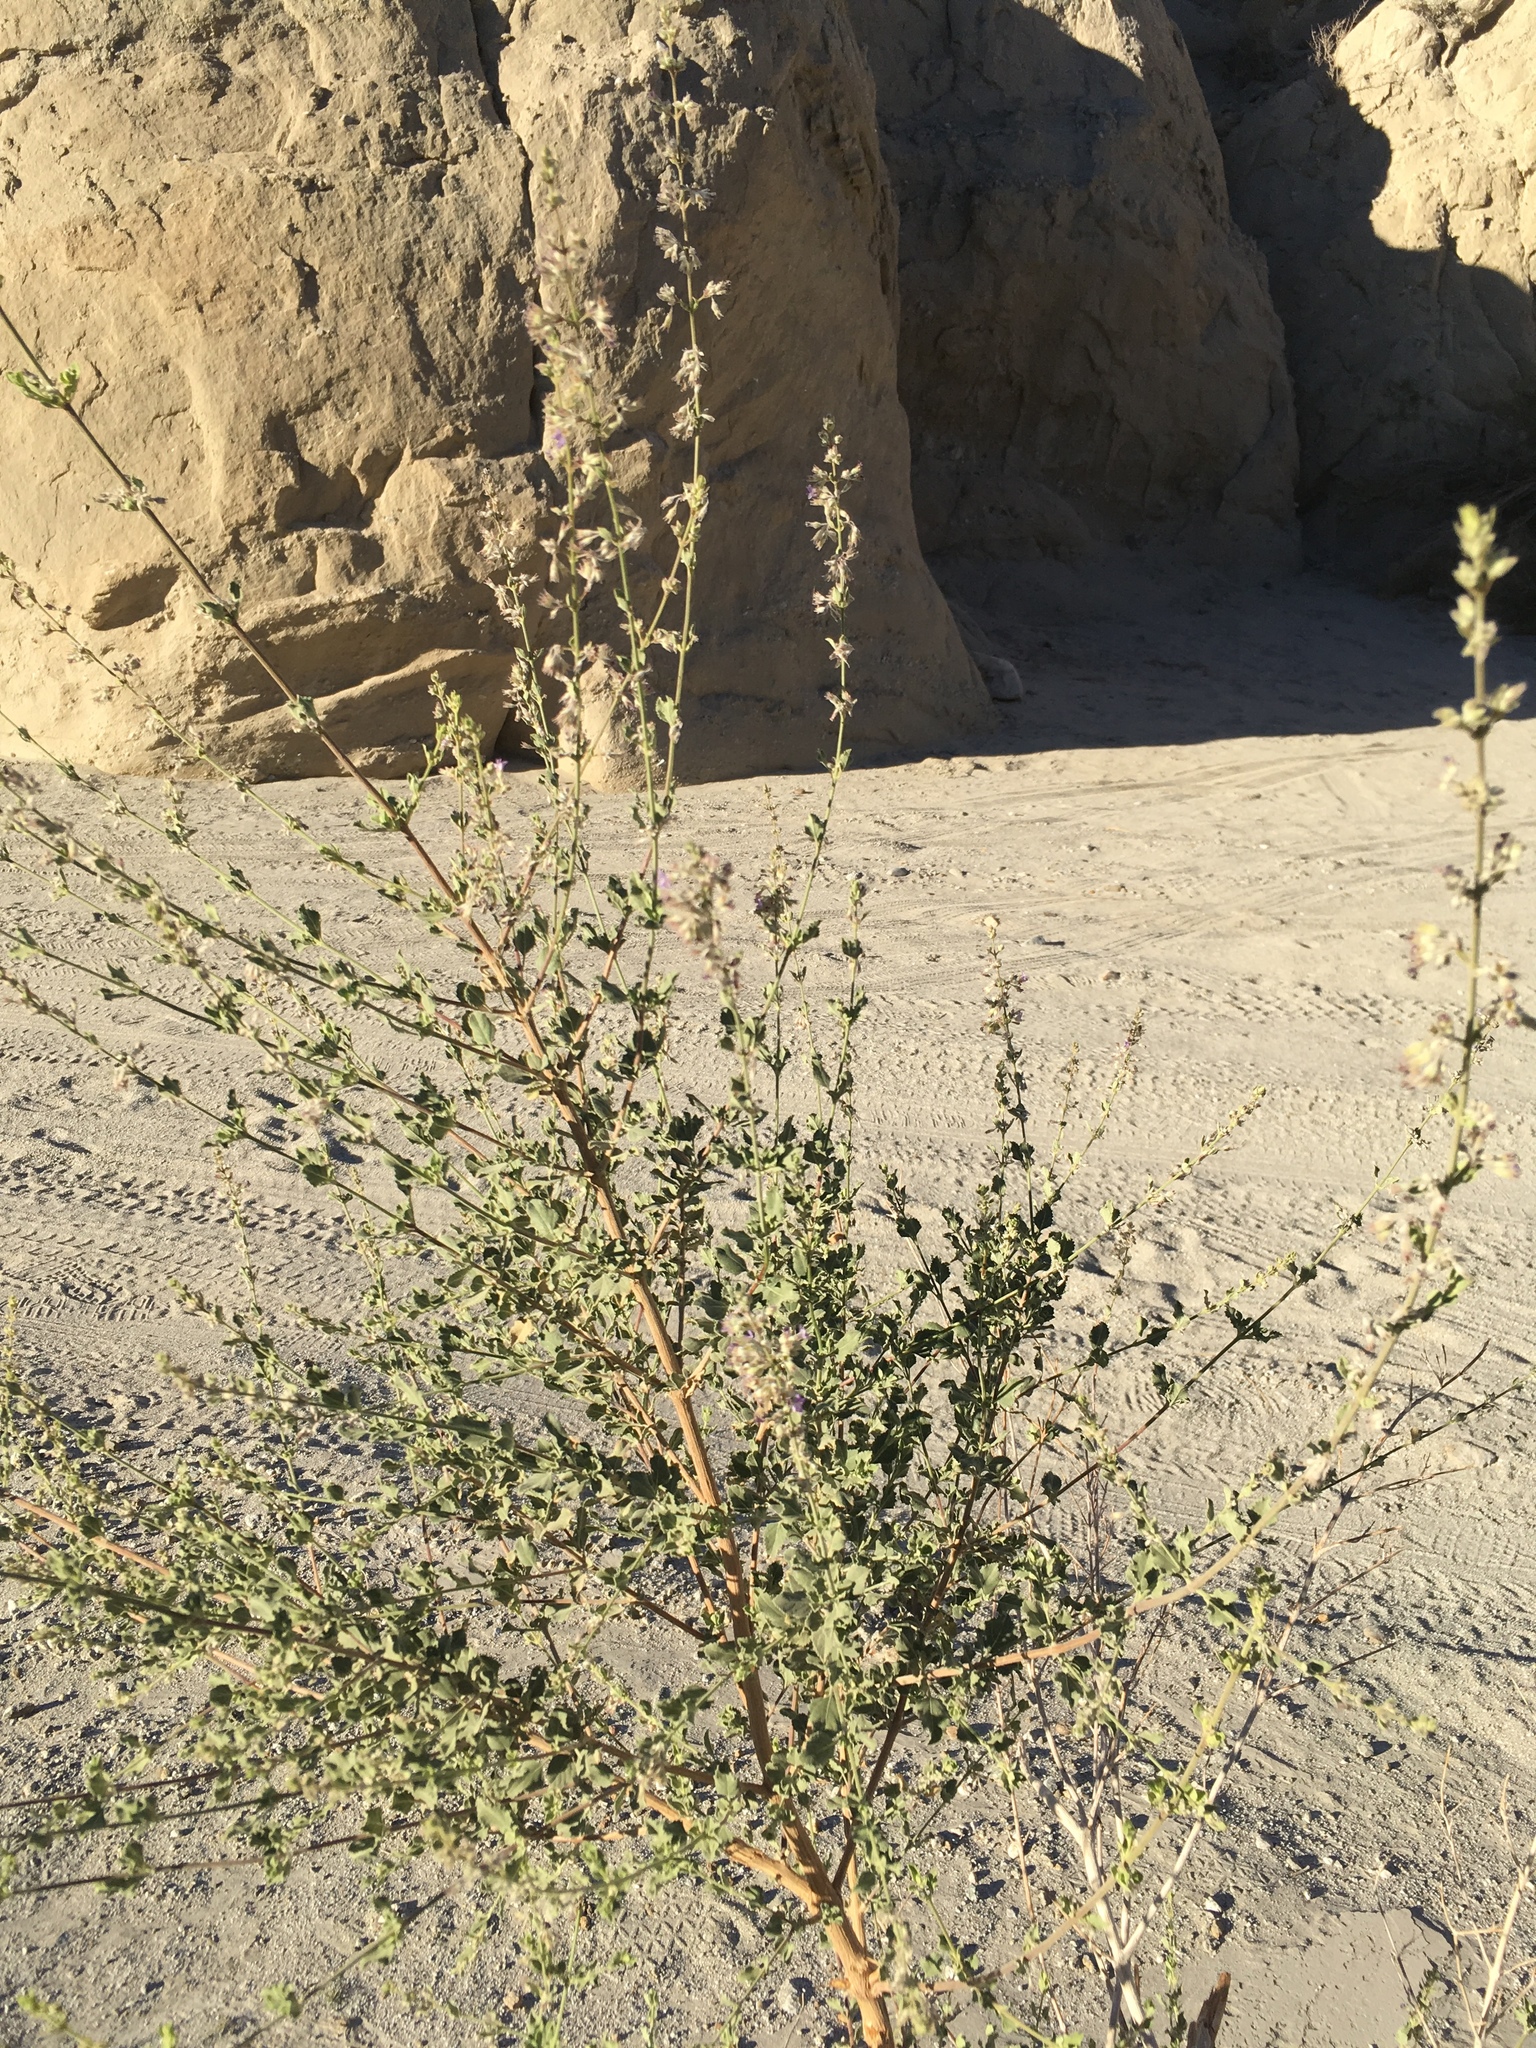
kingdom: Plantae
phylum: Tracheophyta
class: Magnoliopsida
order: Lamiales
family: Lamiaceae
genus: Condea
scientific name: Condea emoryi
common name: Chia
